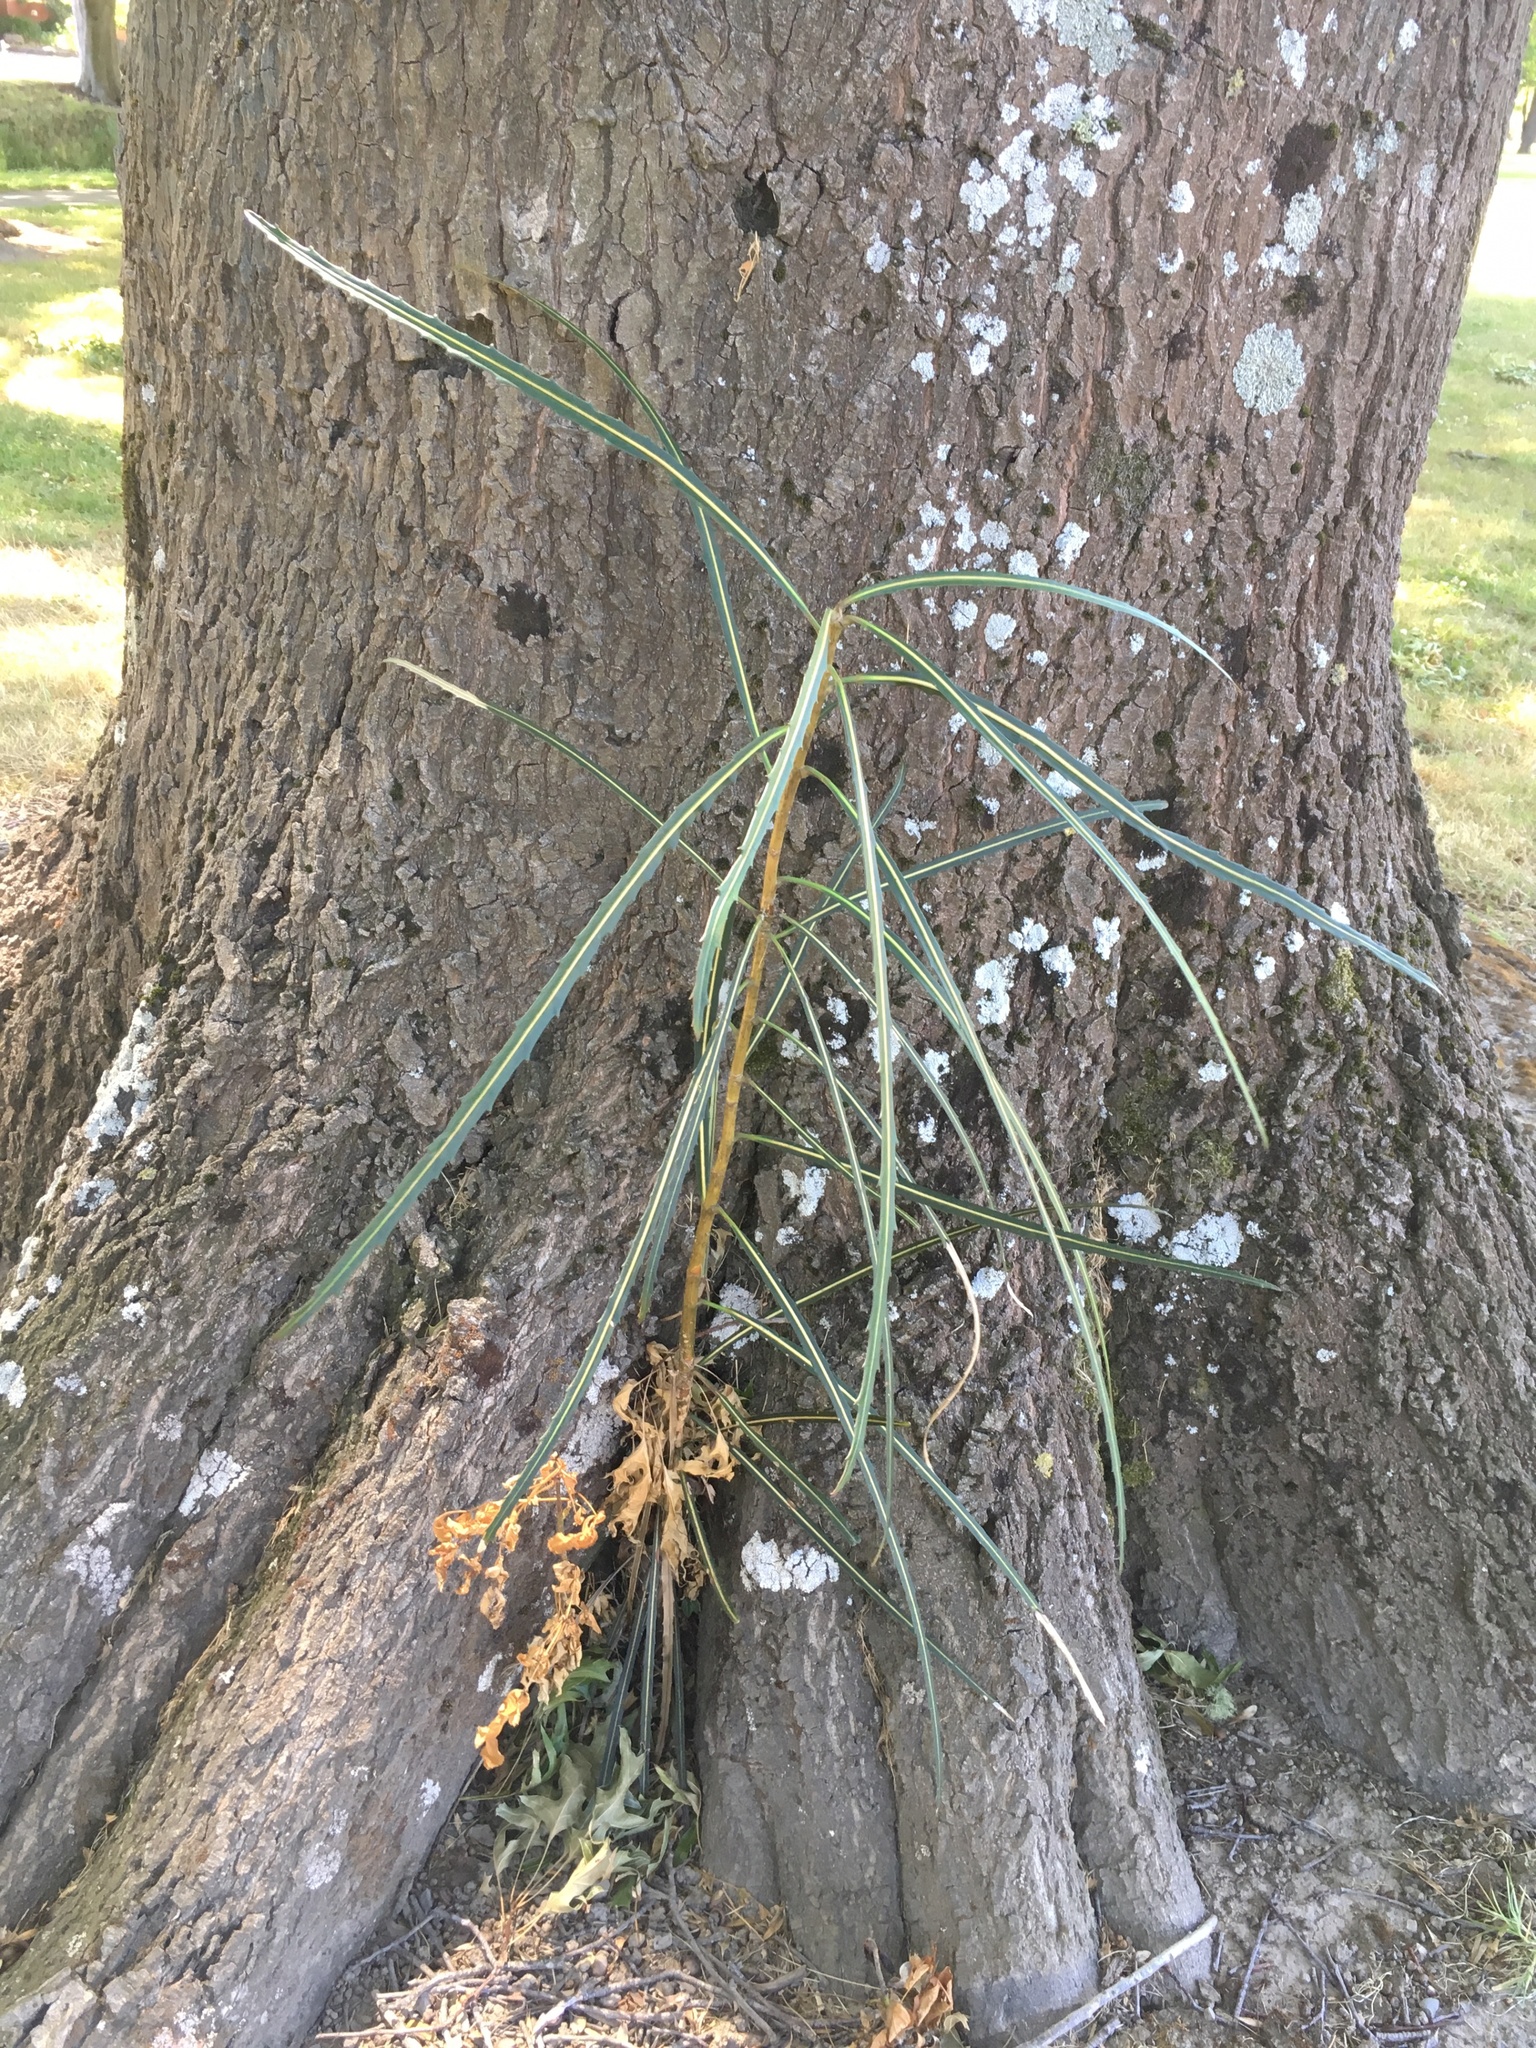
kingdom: Plantae
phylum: Tracheophyta
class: Magnoliopsida
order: Apiales
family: Araliaceae
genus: Pseudopanax
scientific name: Pseudopanax crassifolius
